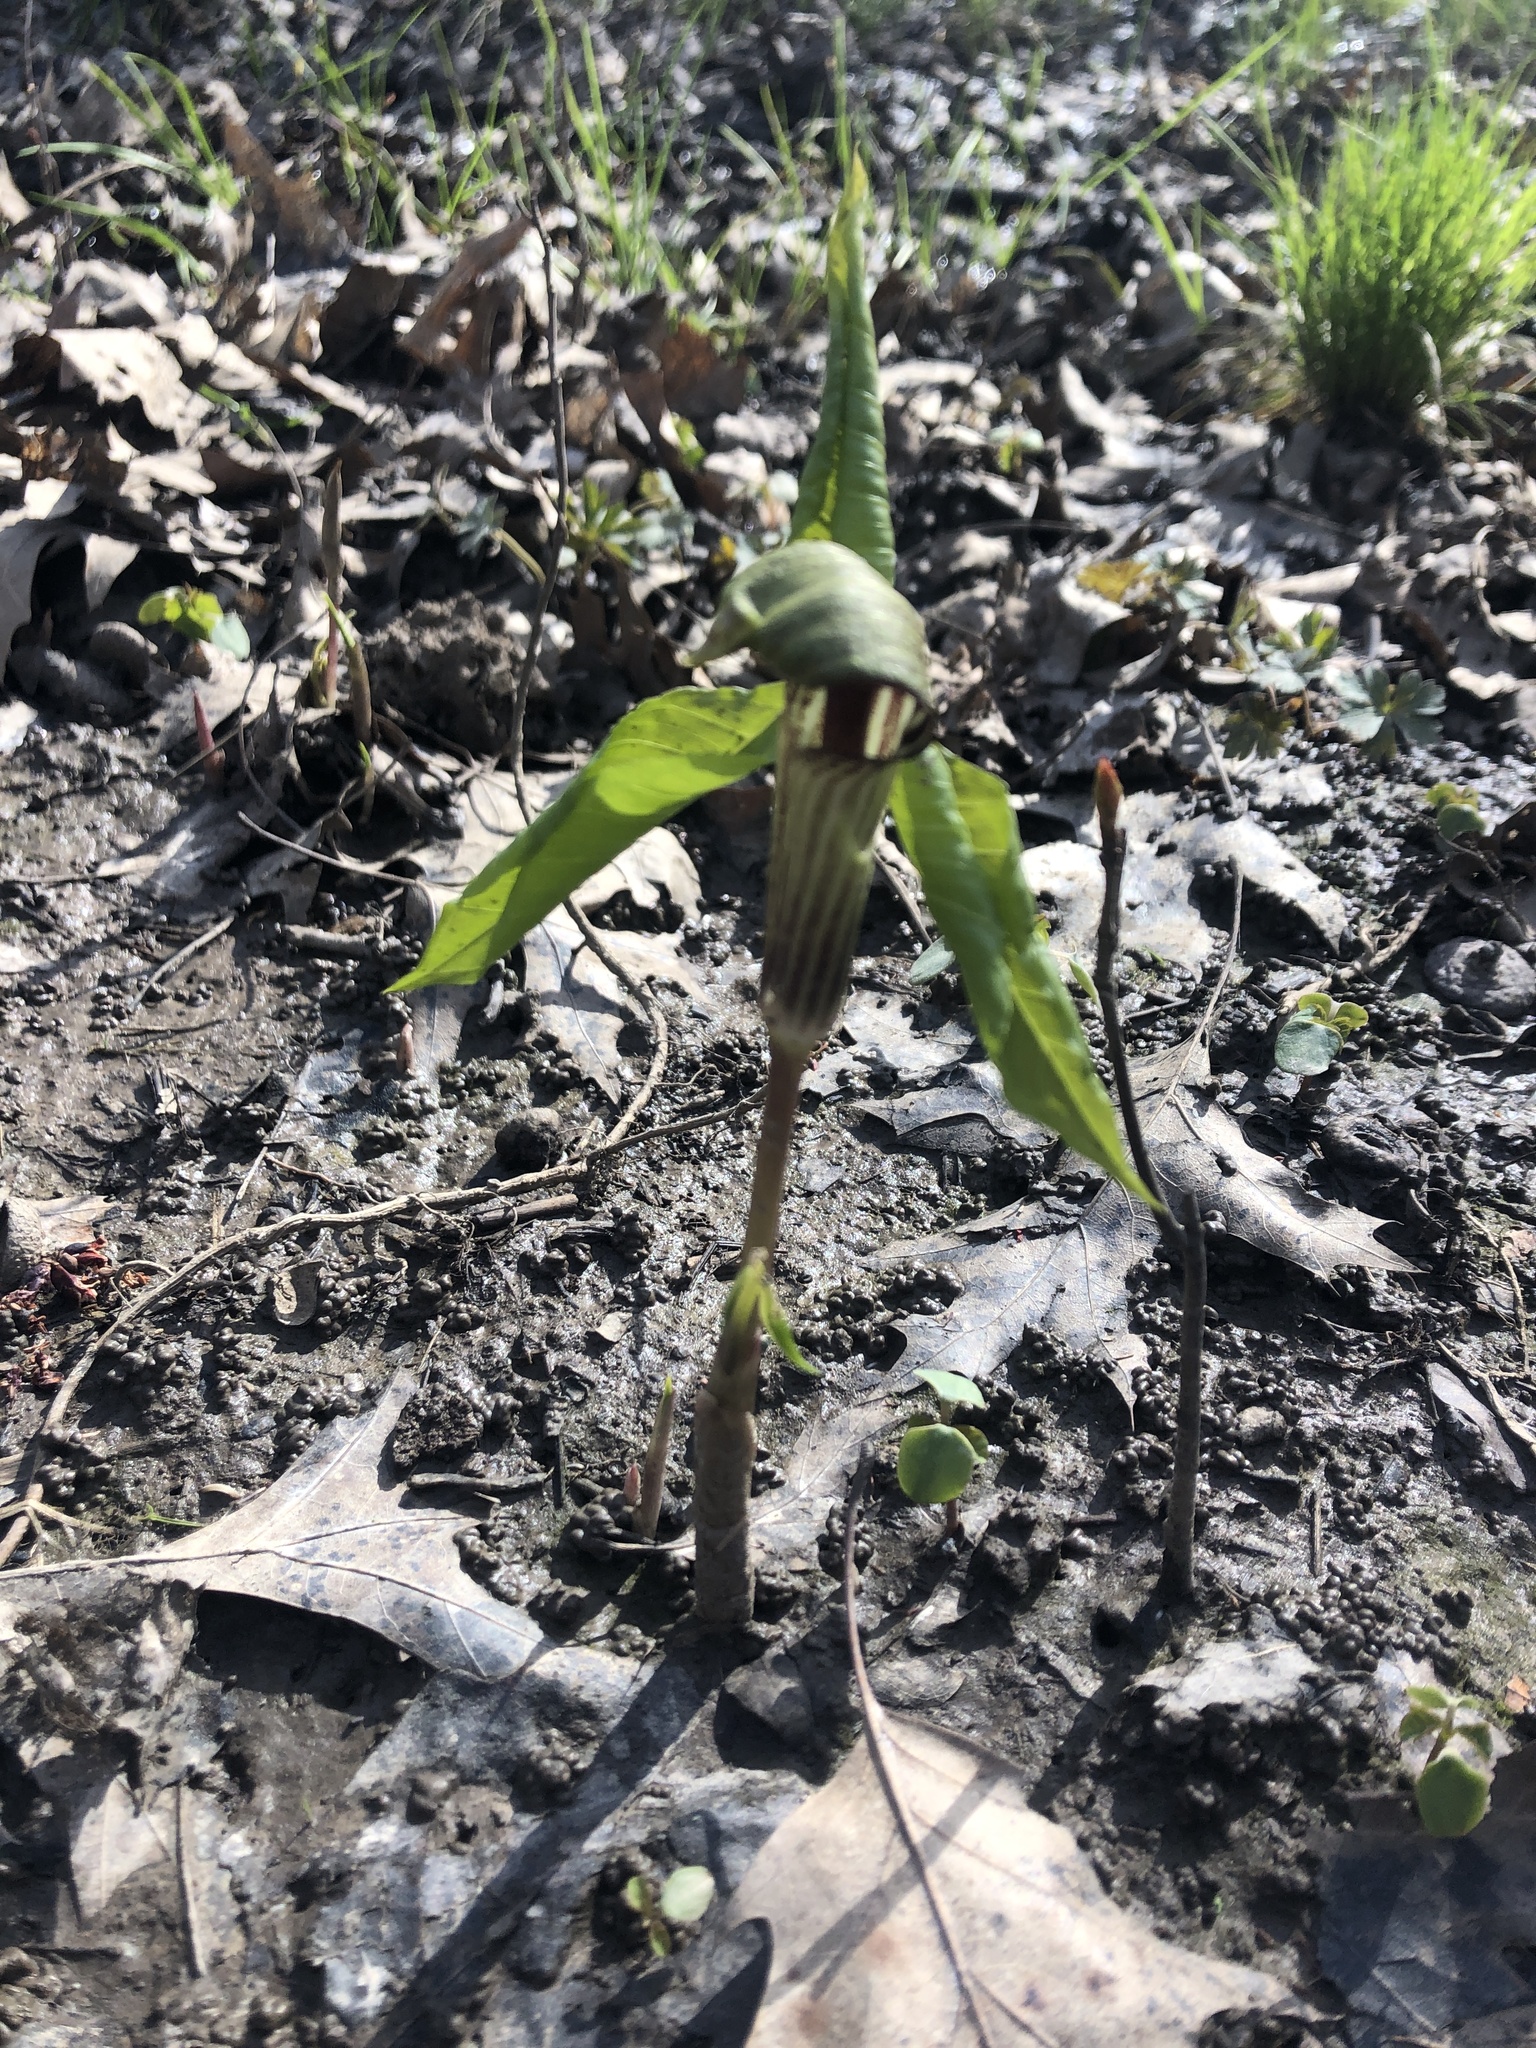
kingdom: Plantae
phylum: Tracheophyta
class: Liliopsida
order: Alismatales
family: Araceae
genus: Arisaema
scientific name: Arisaema triphyllum
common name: Jack-in-the-pulpit
